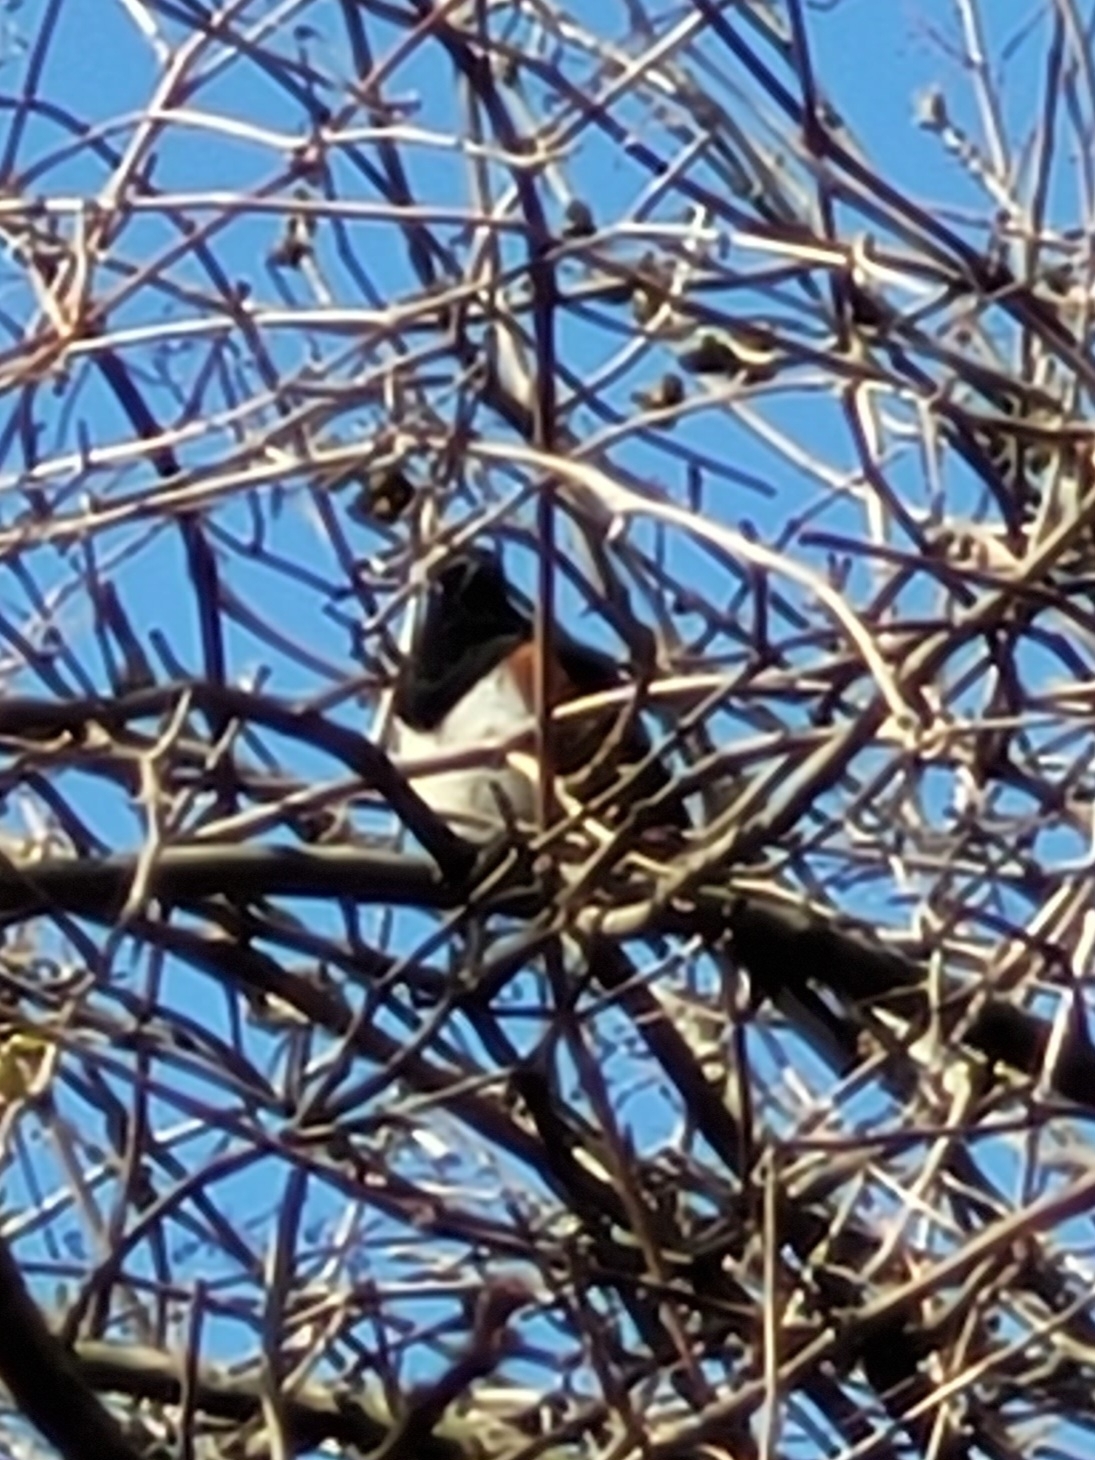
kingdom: Animalia
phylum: Chordata
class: Aves
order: Passeriformes
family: Passerellidae
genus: Pipilo
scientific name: Pipilo erythrophthalmus
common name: Eastern towhee
